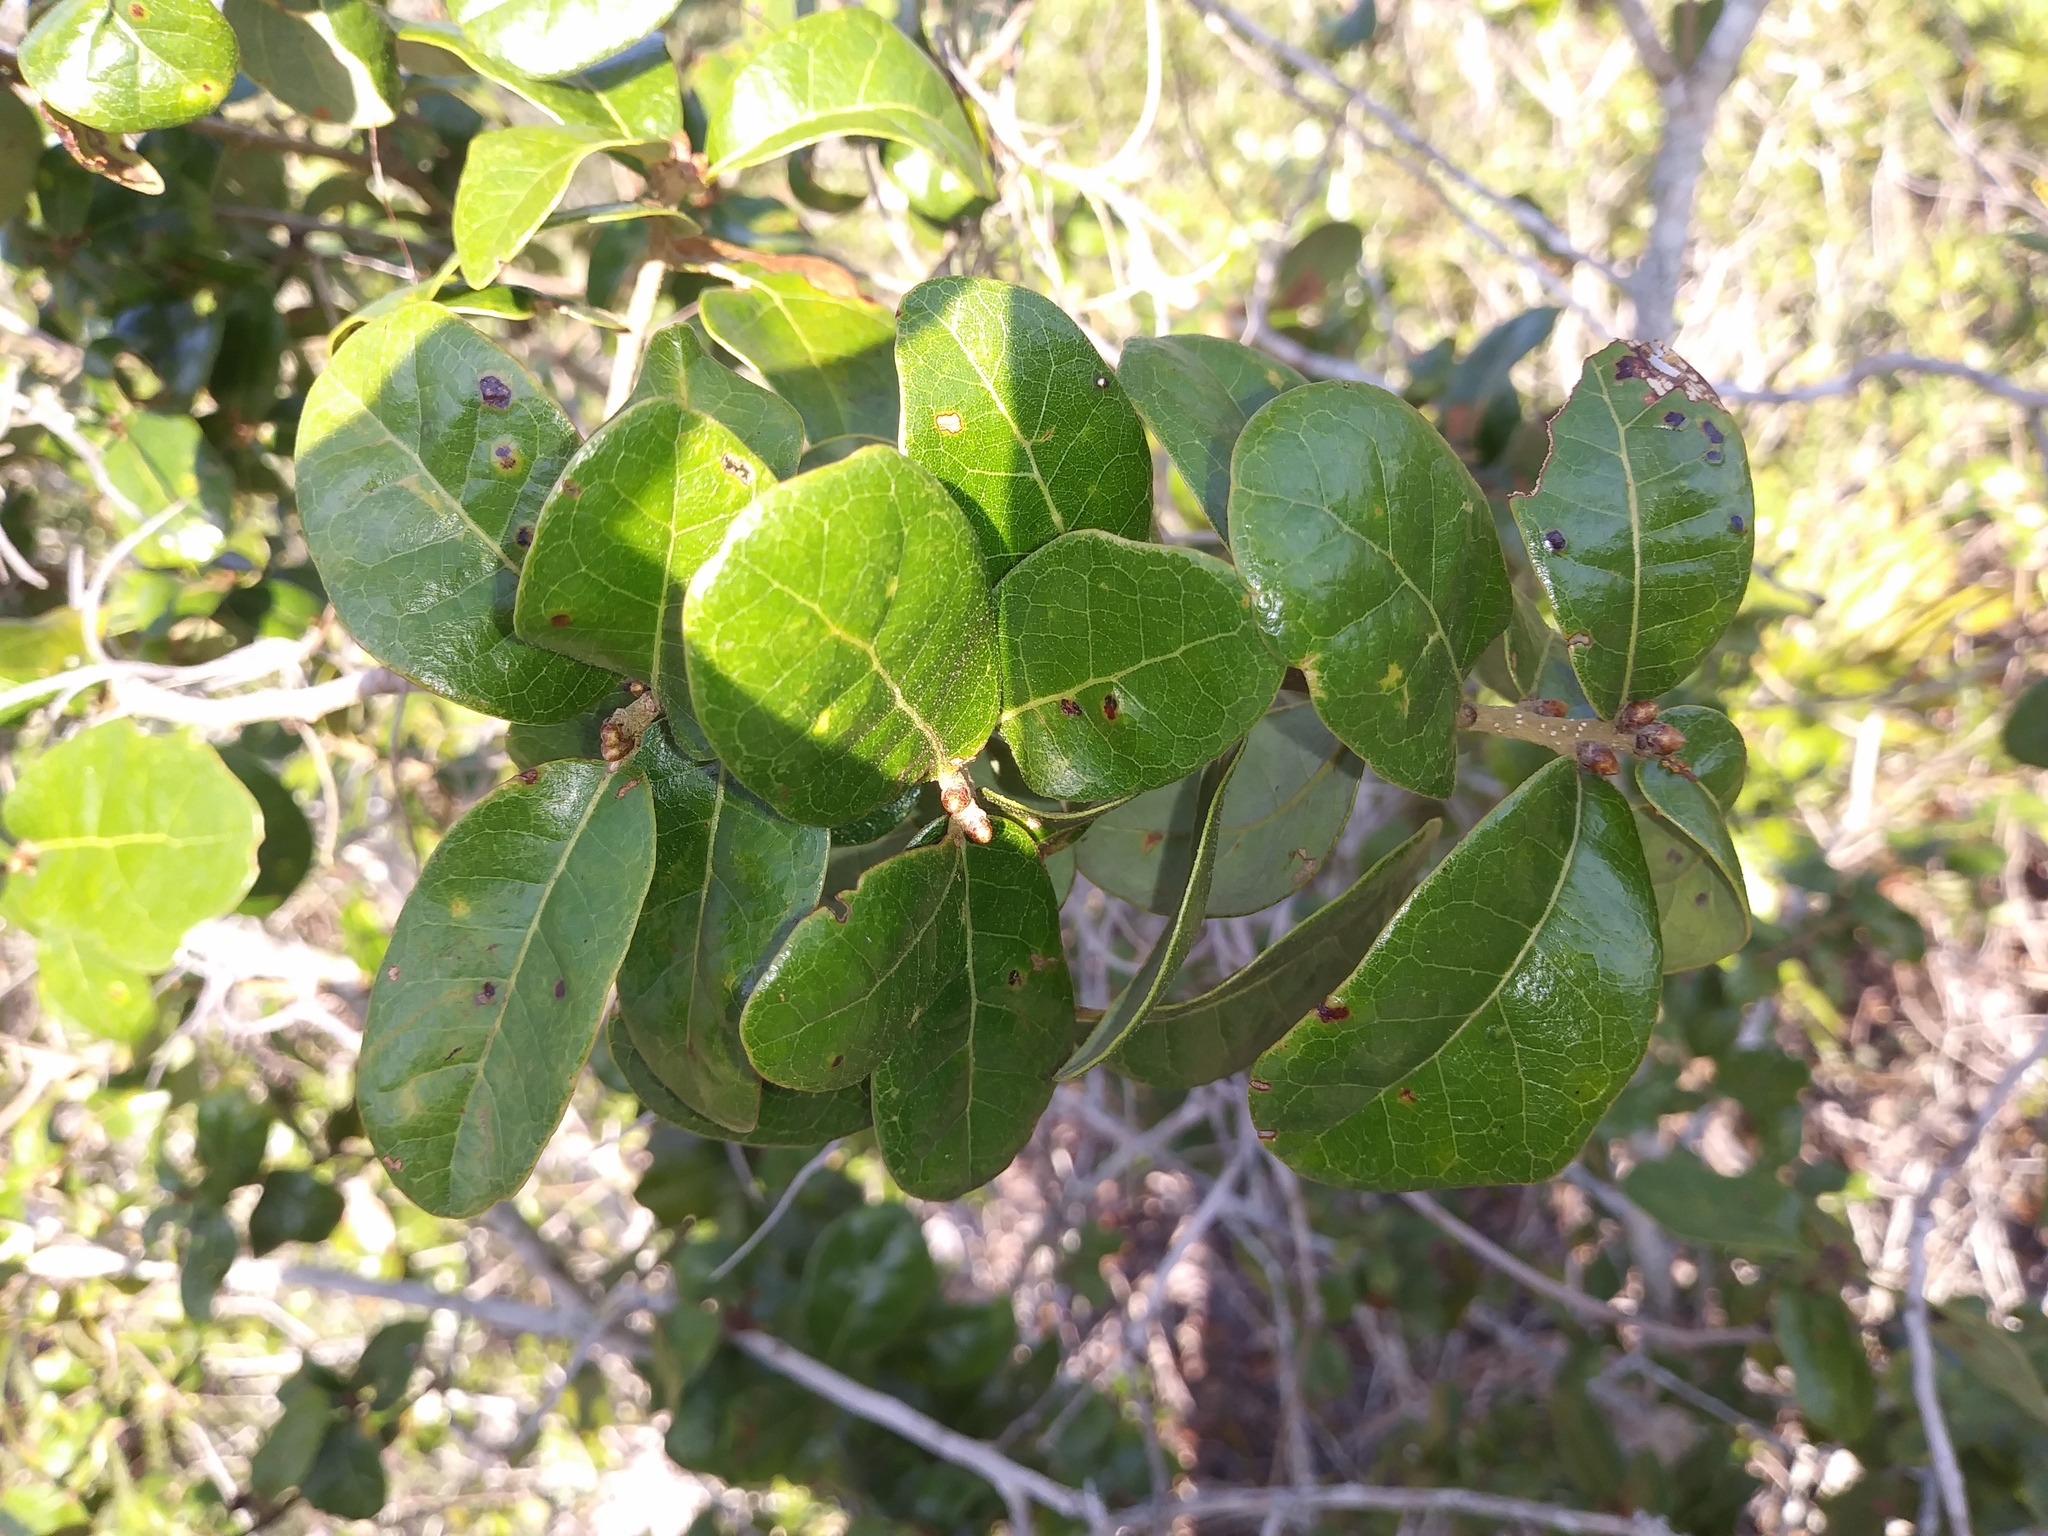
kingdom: Plantae
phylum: Tracheophyta
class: Magnoliopsida
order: Fagales
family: Fagaceae
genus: Quercus
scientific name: Quercus chapmanii
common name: Chapman oak
